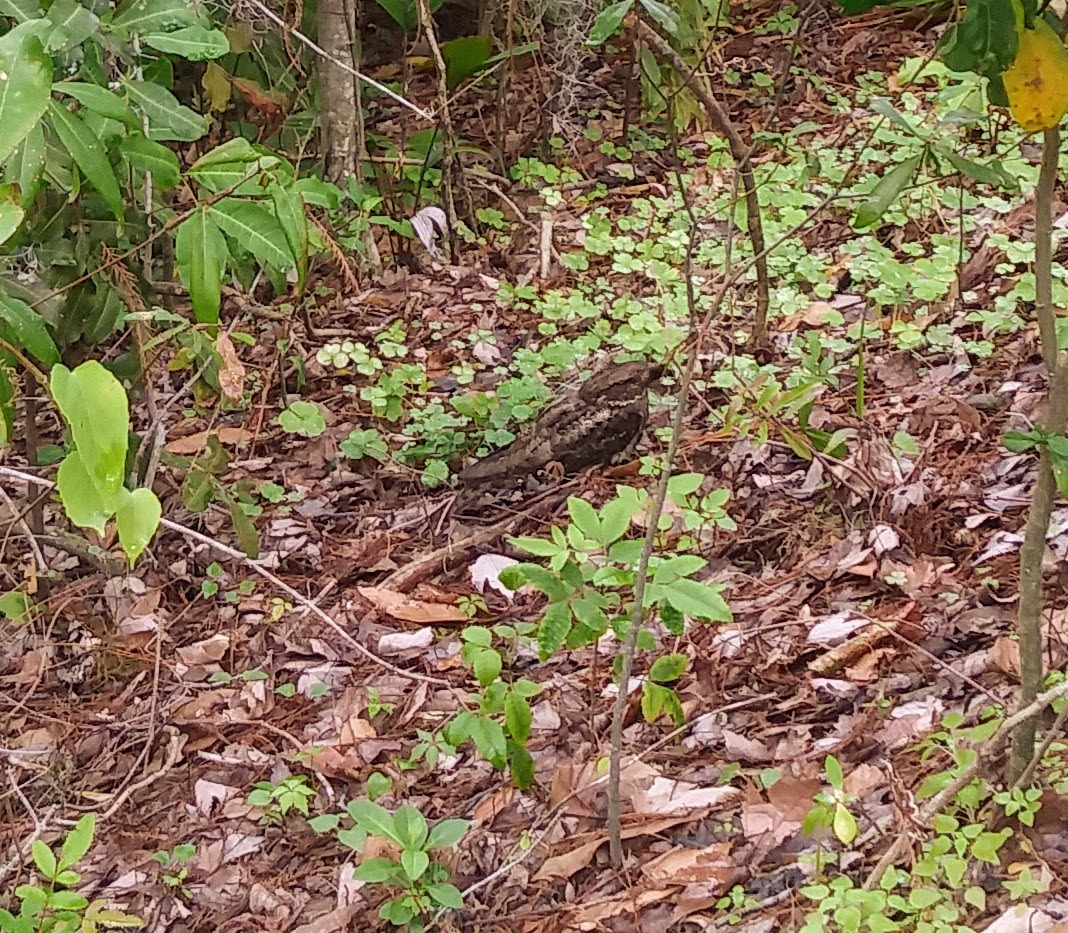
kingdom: Animalia
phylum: Chordata
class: Aves
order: Caprimulgiformes
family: Caprimulgidae
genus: Antrostomus
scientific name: Antrostomus carolinensis
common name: Chuck-will's-widow
